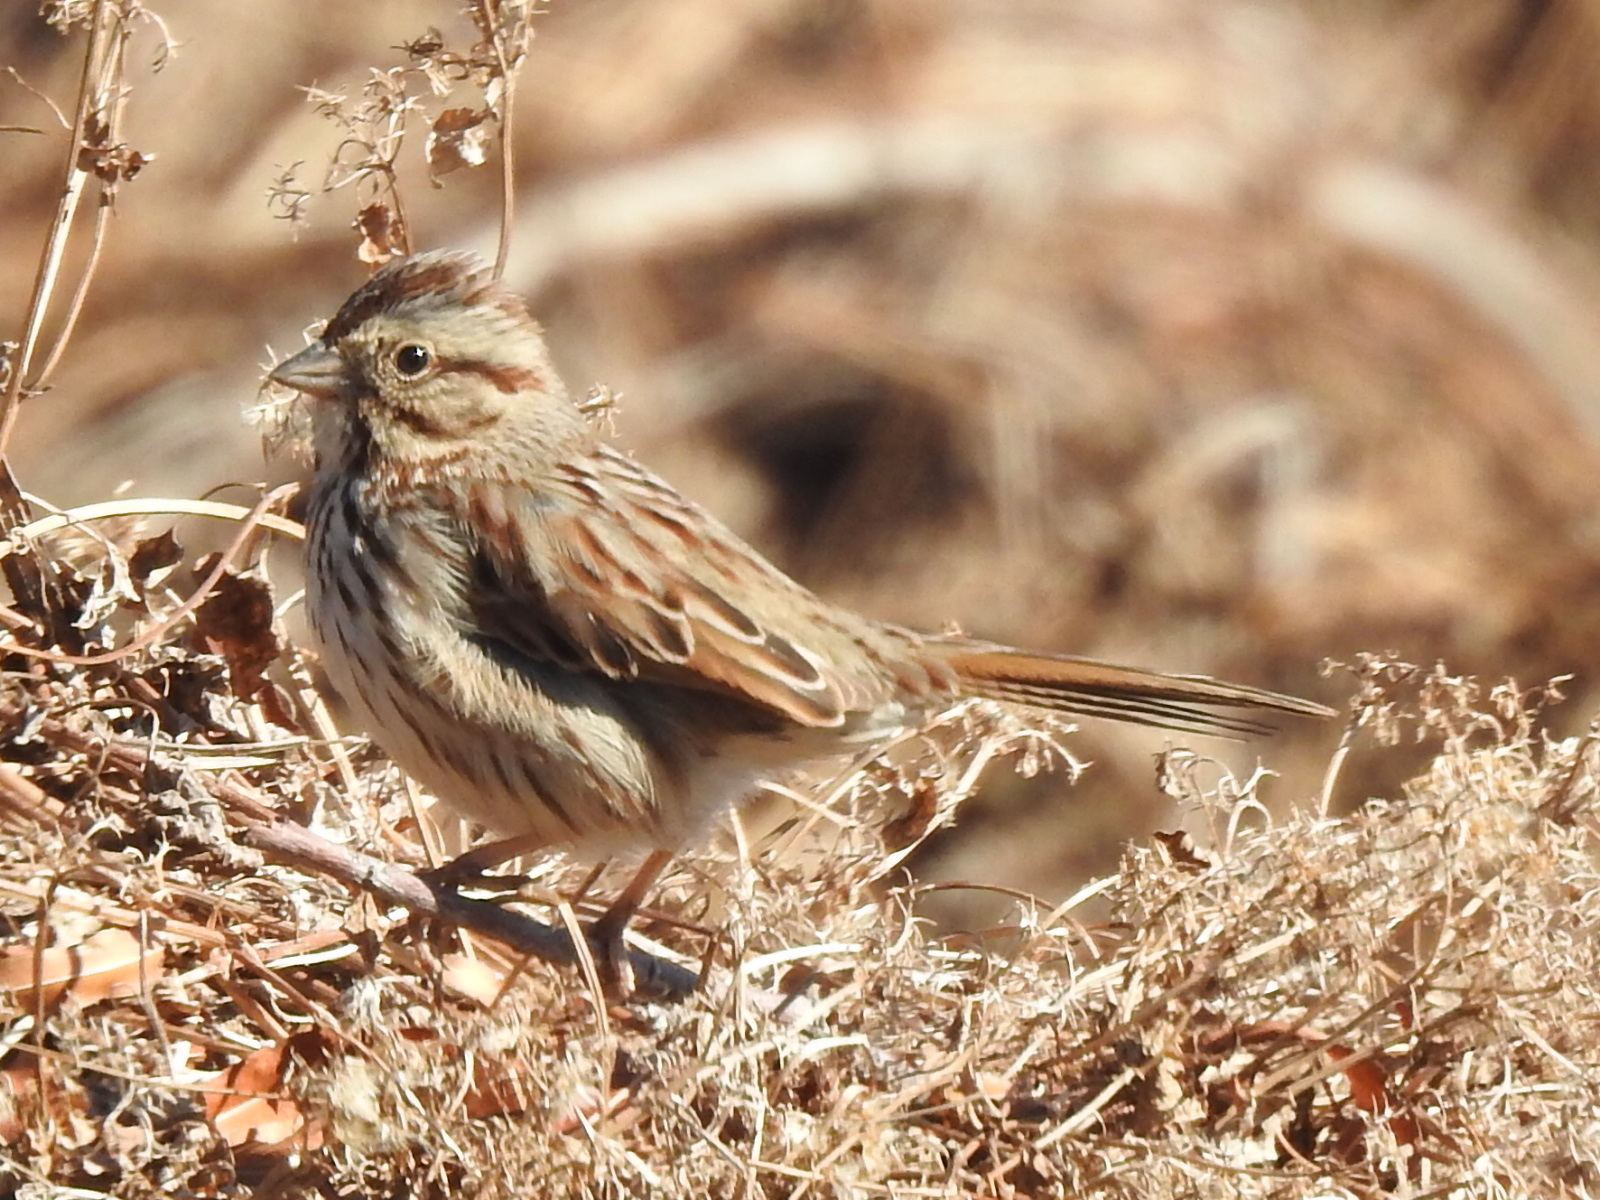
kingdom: Animalia
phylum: Chordata
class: Aves
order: Passeriformes
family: Passerellidae
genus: Melospiza
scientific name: Melospiza melodia
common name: Song sparrow
